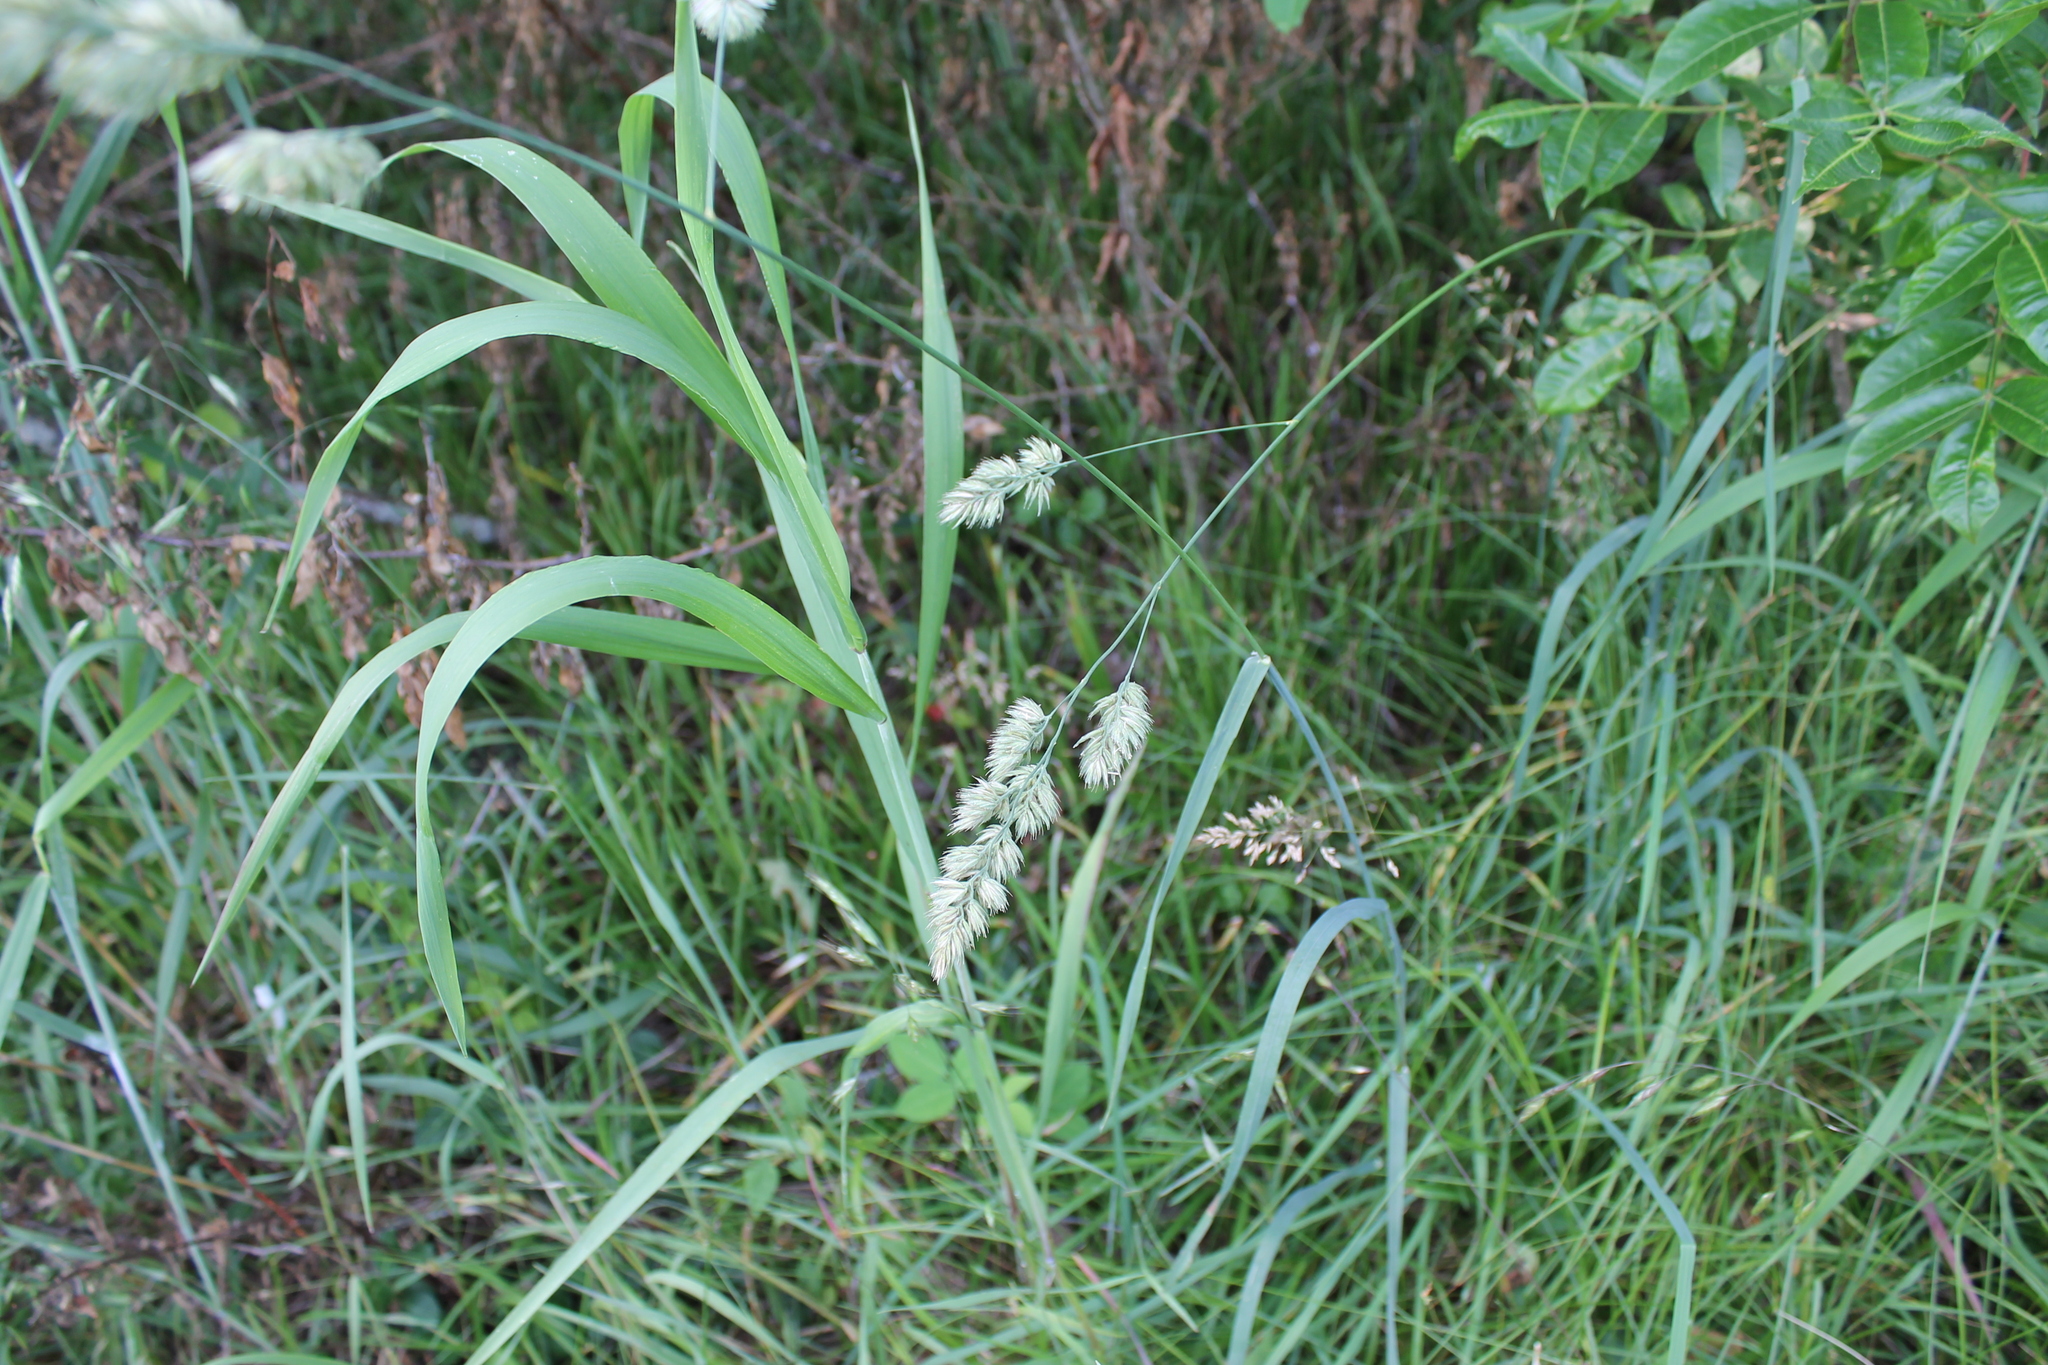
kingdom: Plantae
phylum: Tracheophyta
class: Liliopsida
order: Poales
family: Poaceae
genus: Dactylis
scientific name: Dactylis glomerata
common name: Orchardgrass
